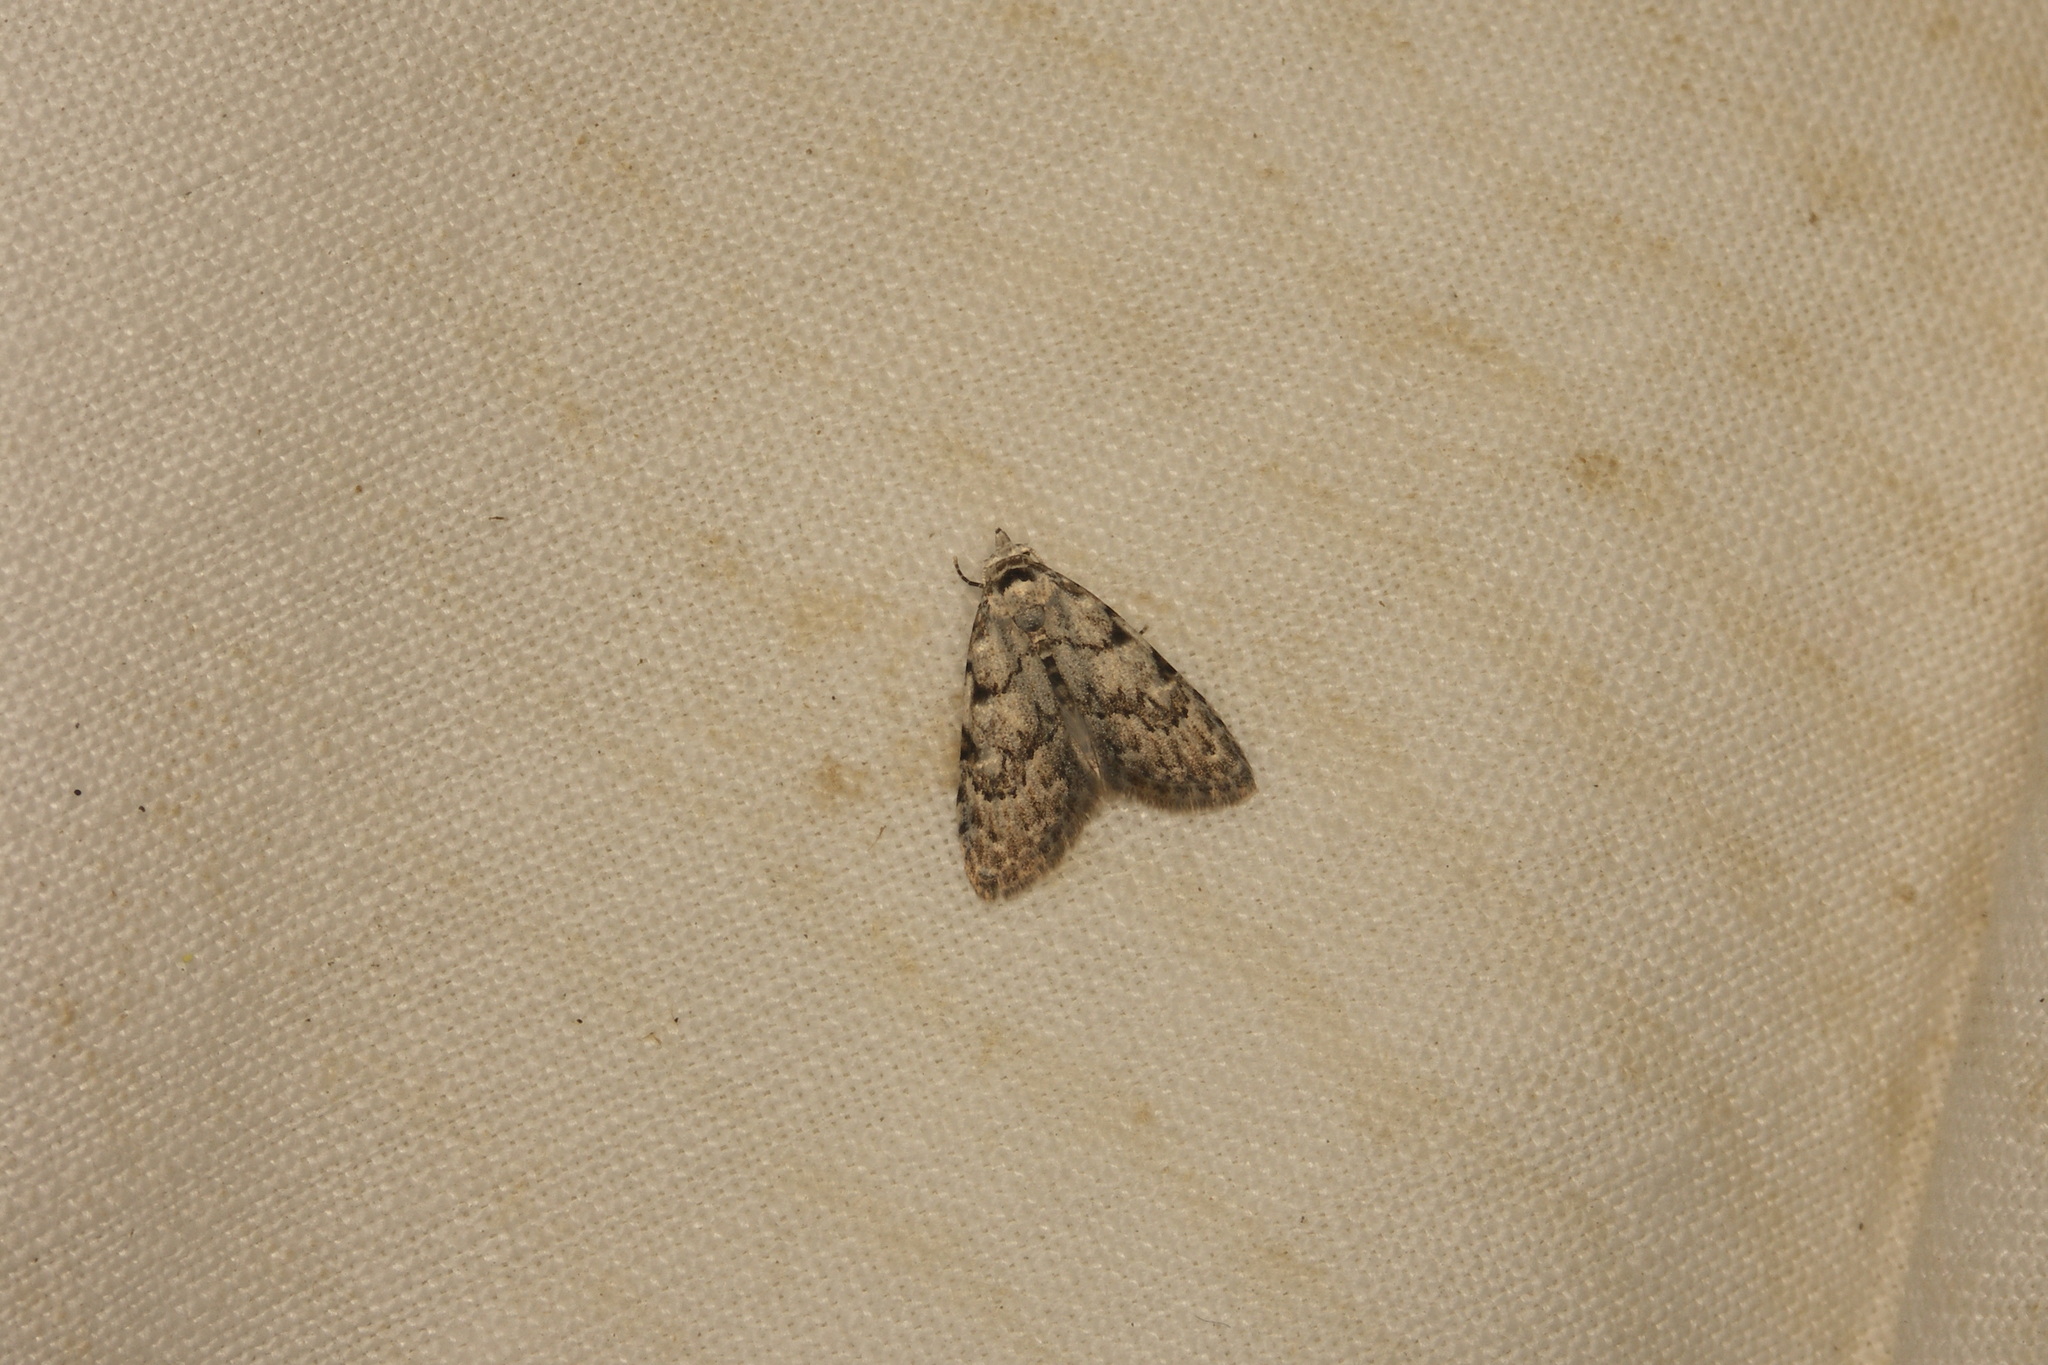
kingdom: Animalia
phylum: Arthropoda
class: Insecta
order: Lepidoptera
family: Nolidae
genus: Nola
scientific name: Nola confusalis
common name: Least black arches
